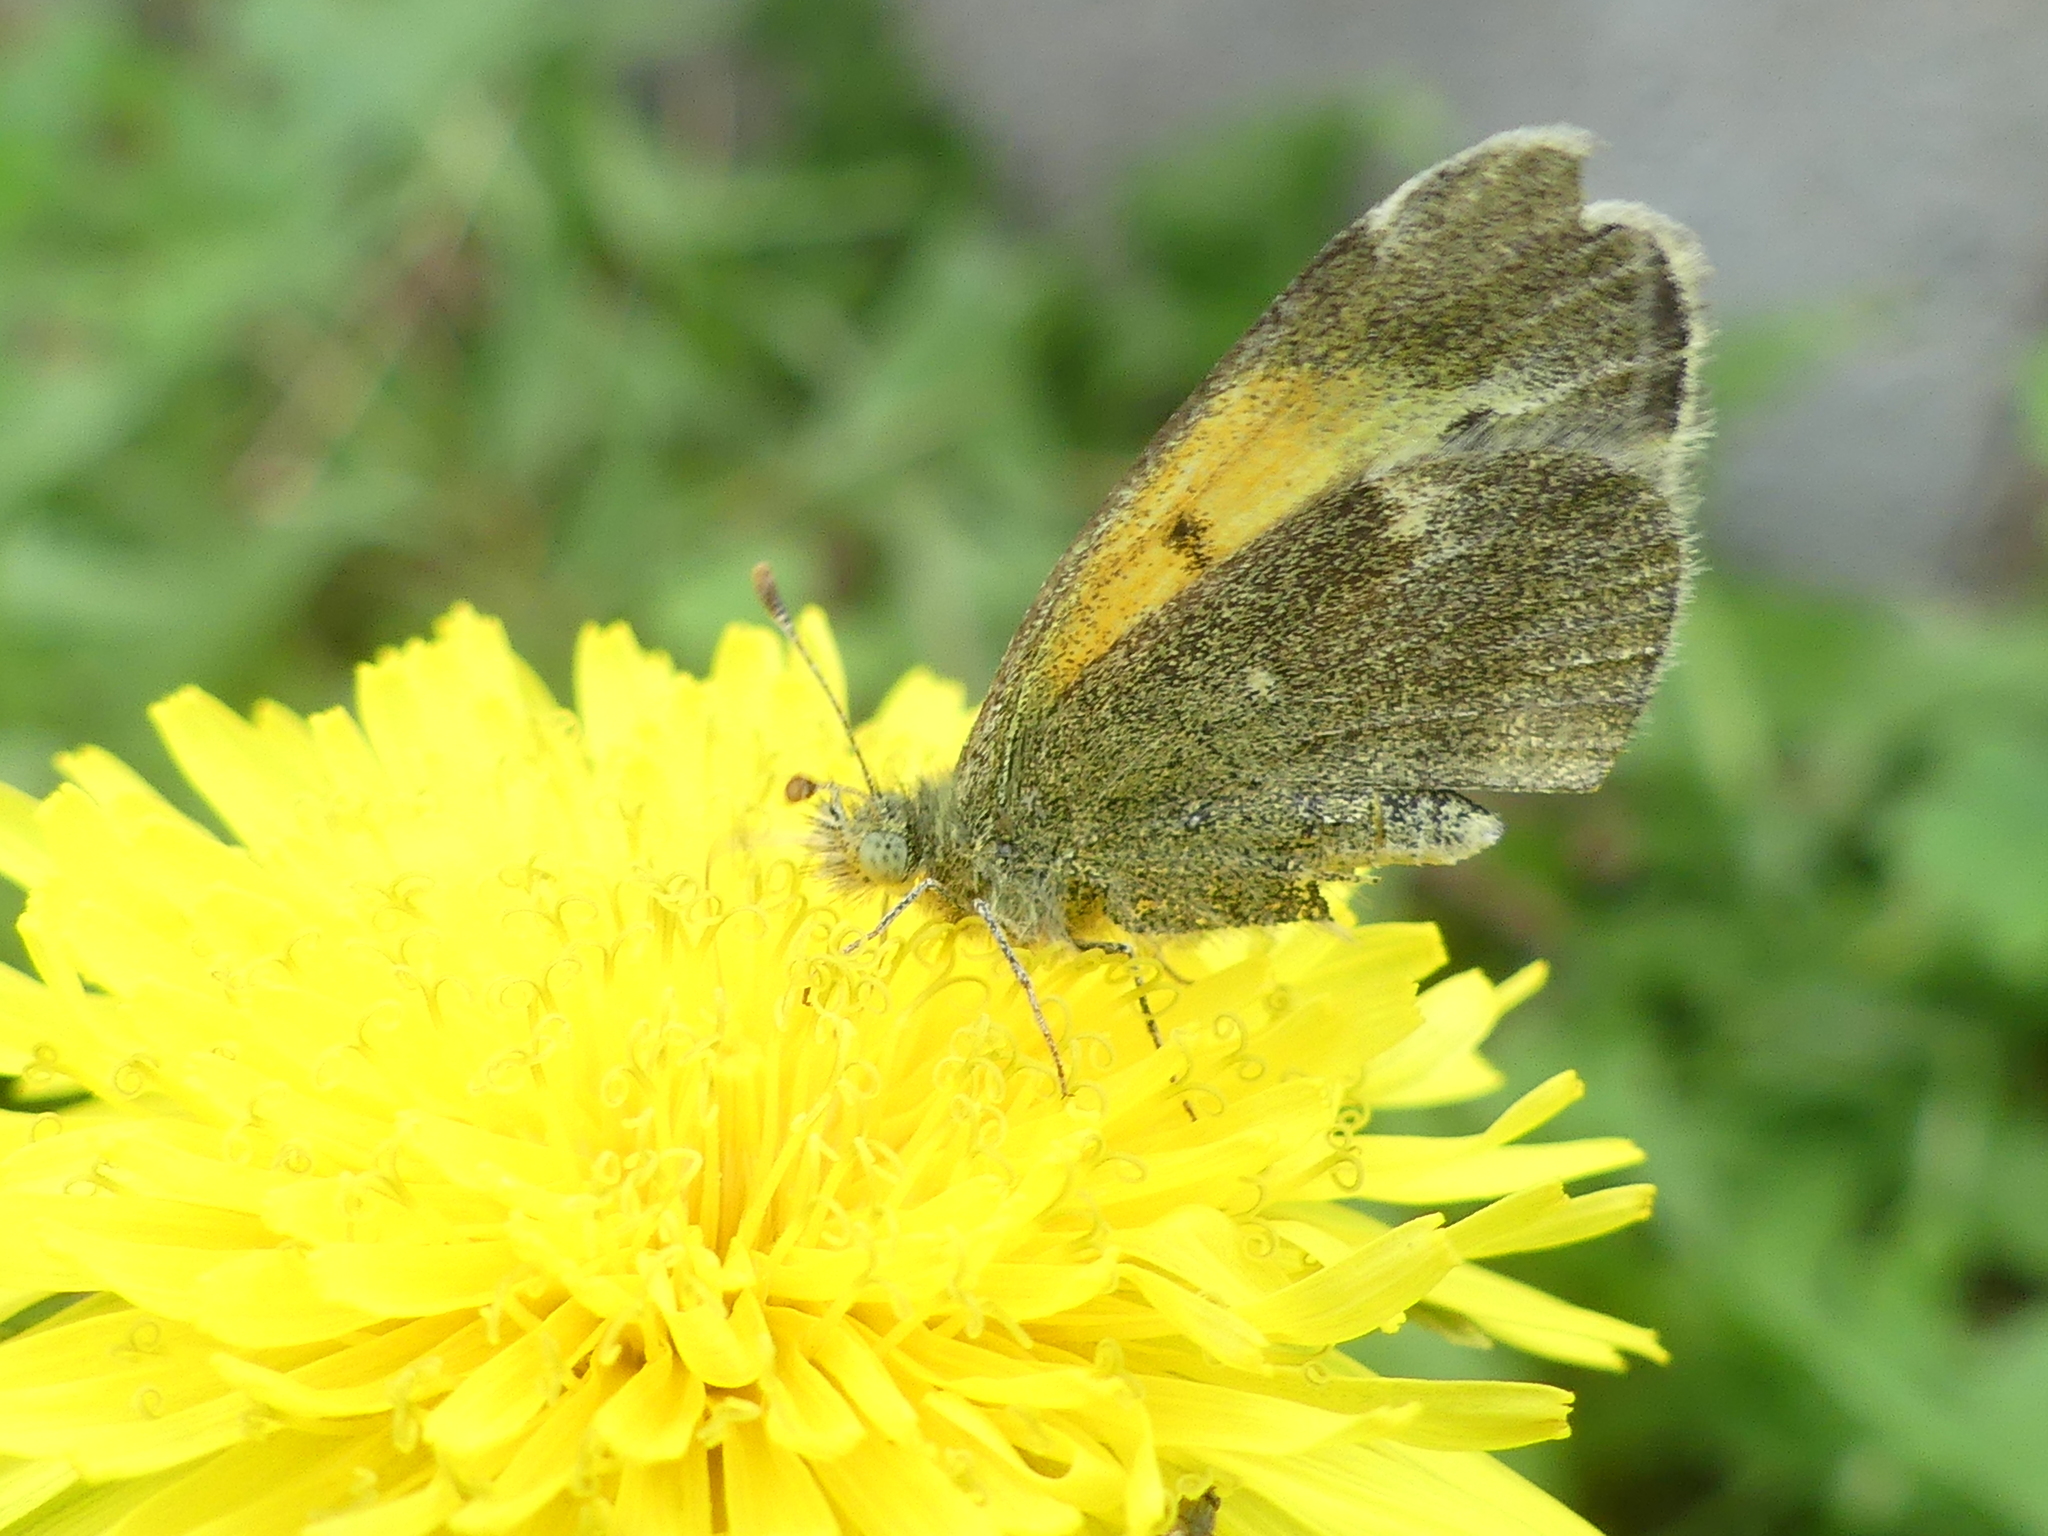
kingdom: Animalia
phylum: Arthropoda
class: Insecta
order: Lepidoptera
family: Pieridae
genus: Nathalis
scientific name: Nathalis iole
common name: Dainty sulphur
